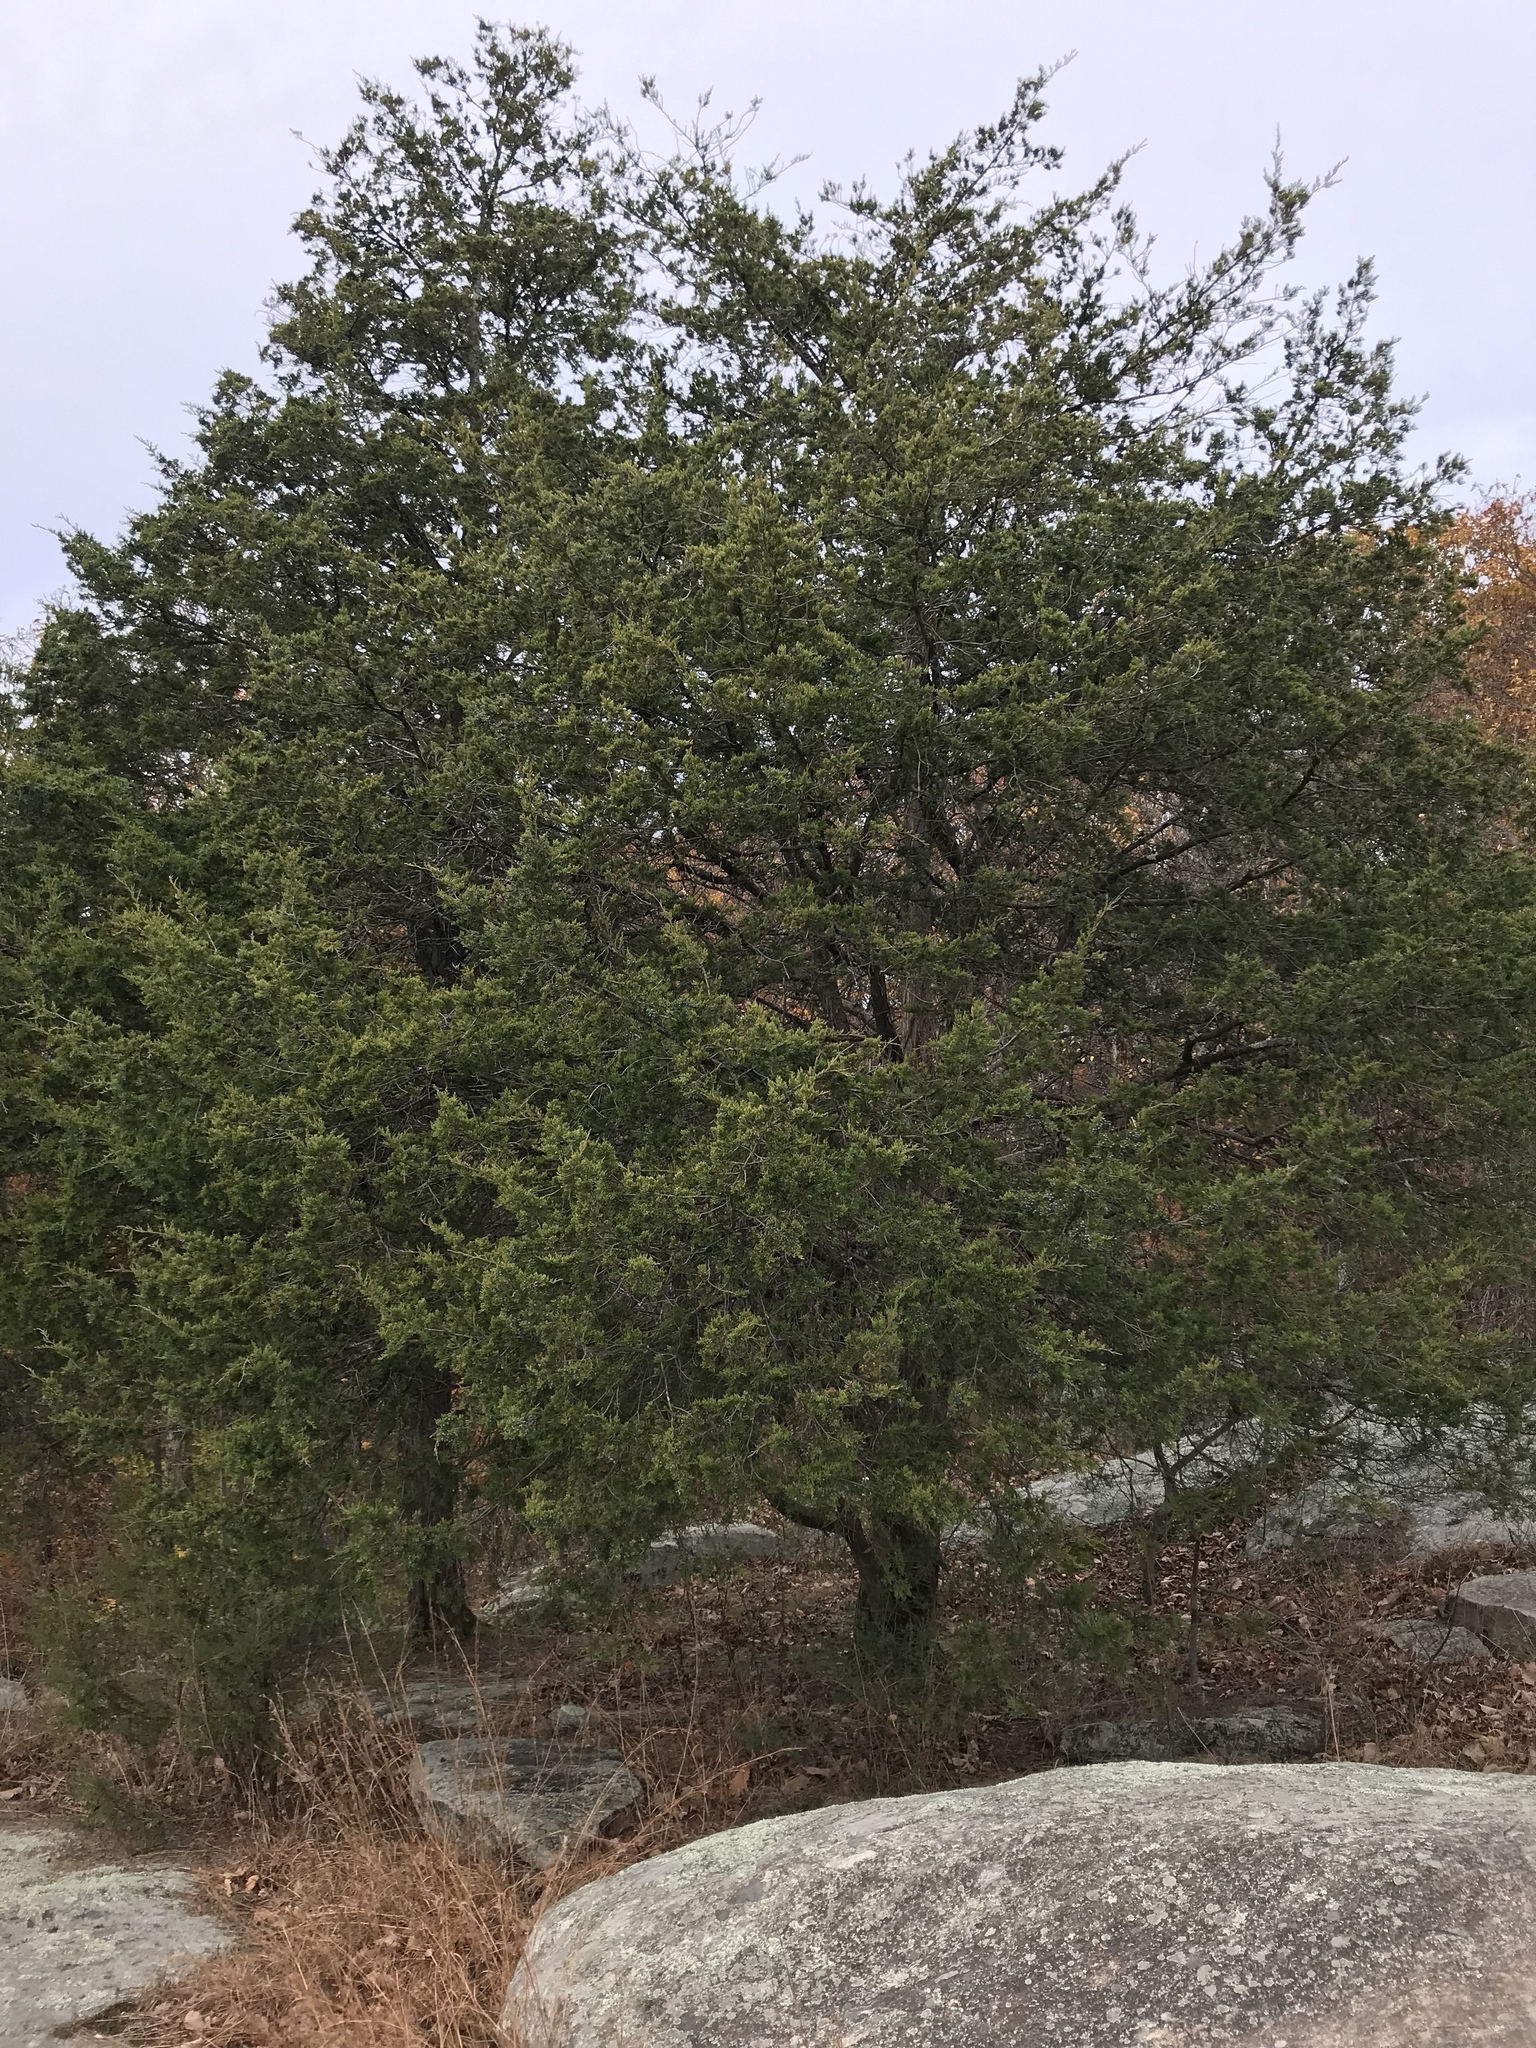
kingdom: Plantae
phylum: Tracheophyta
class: Pinopsida
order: Pinales
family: Cupressaceae
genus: Juniperus
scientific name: Juniperus virginiana
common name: Red juniper
